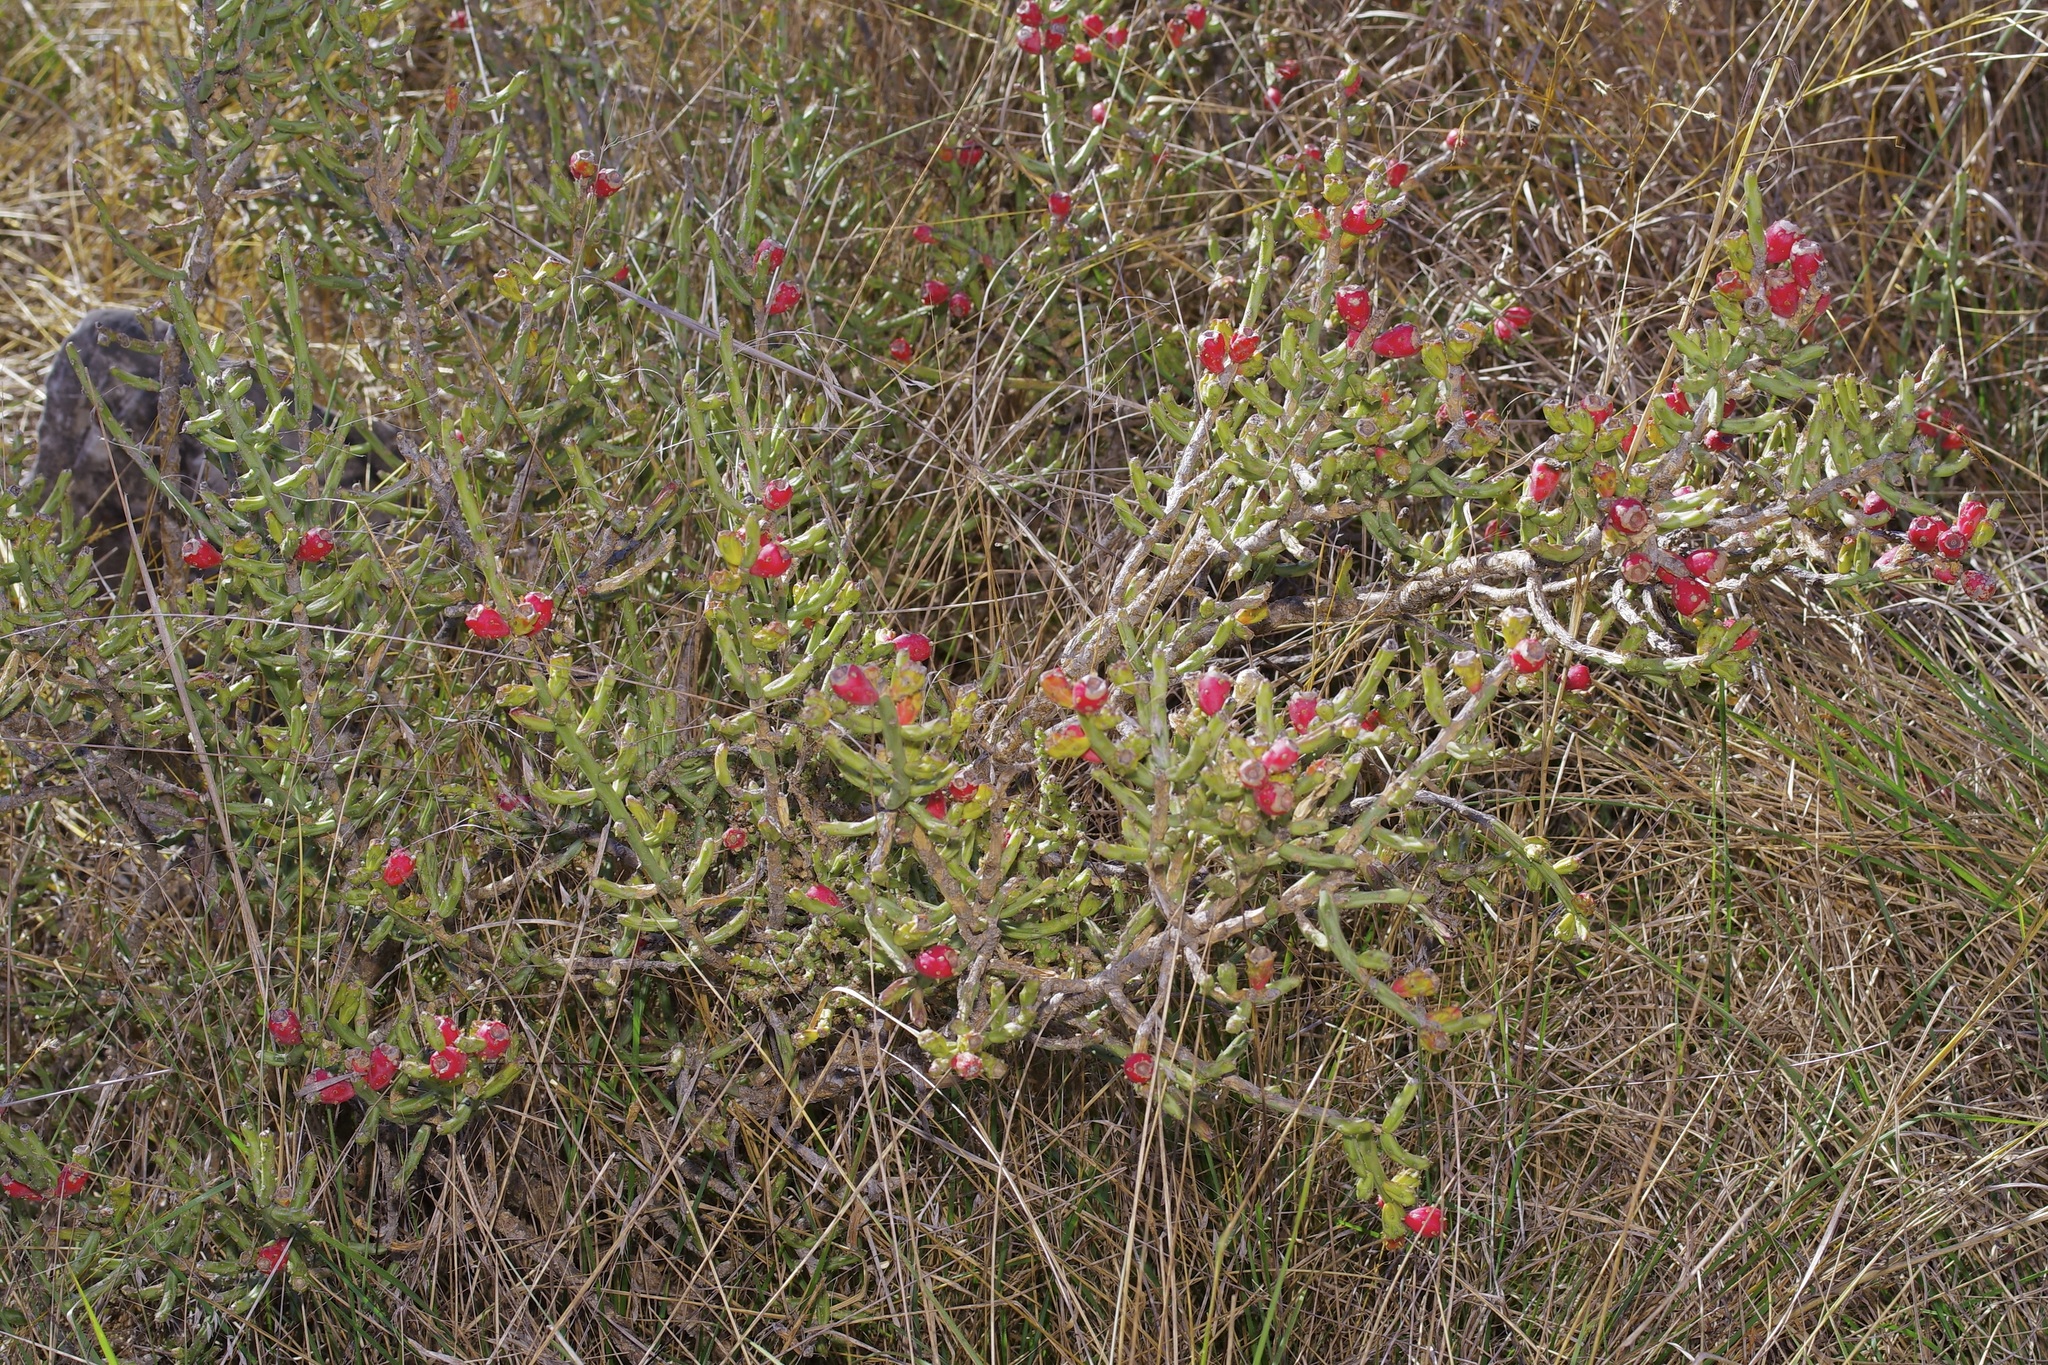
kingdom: Plantae
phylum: Tracheophyta
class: Magnoliopsida
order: Caryophyllales
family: Cactaceae
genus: Cylindropuntia
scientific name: Cylindropuntia leptocaulis
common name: Christmas cactus
